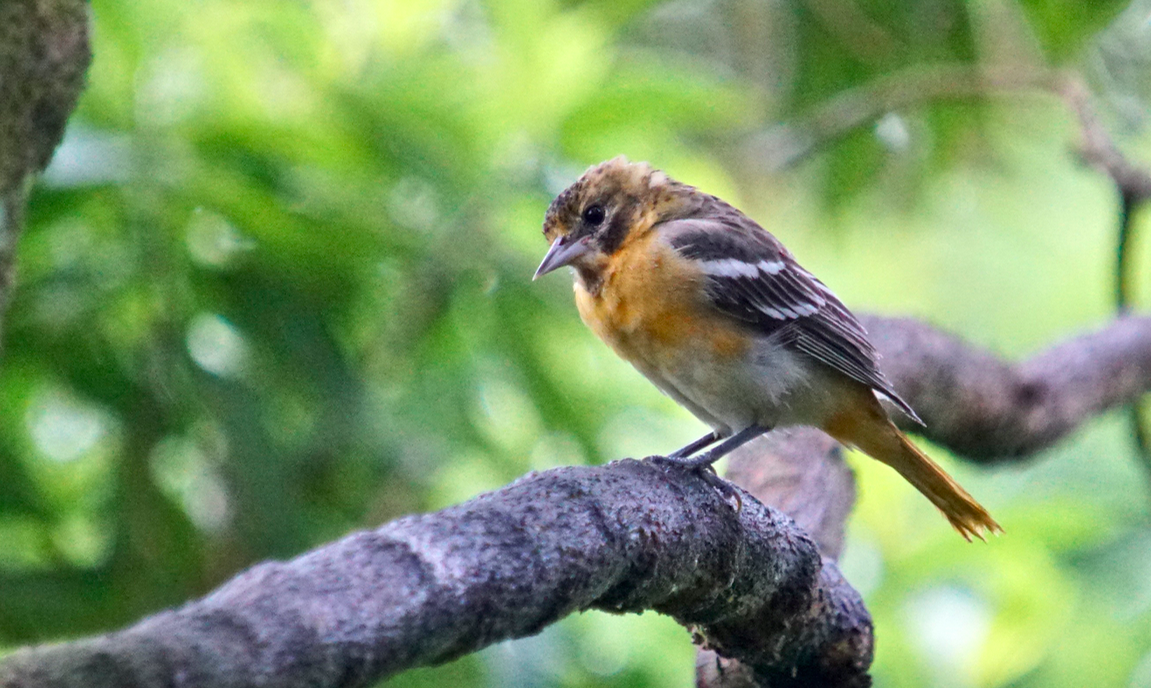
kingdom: Animalia
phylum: Chordata
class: Aves
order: Passeriformes
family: Icteridae
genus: Icterus
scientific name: Icterus galbula
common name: Baltimore oriole
